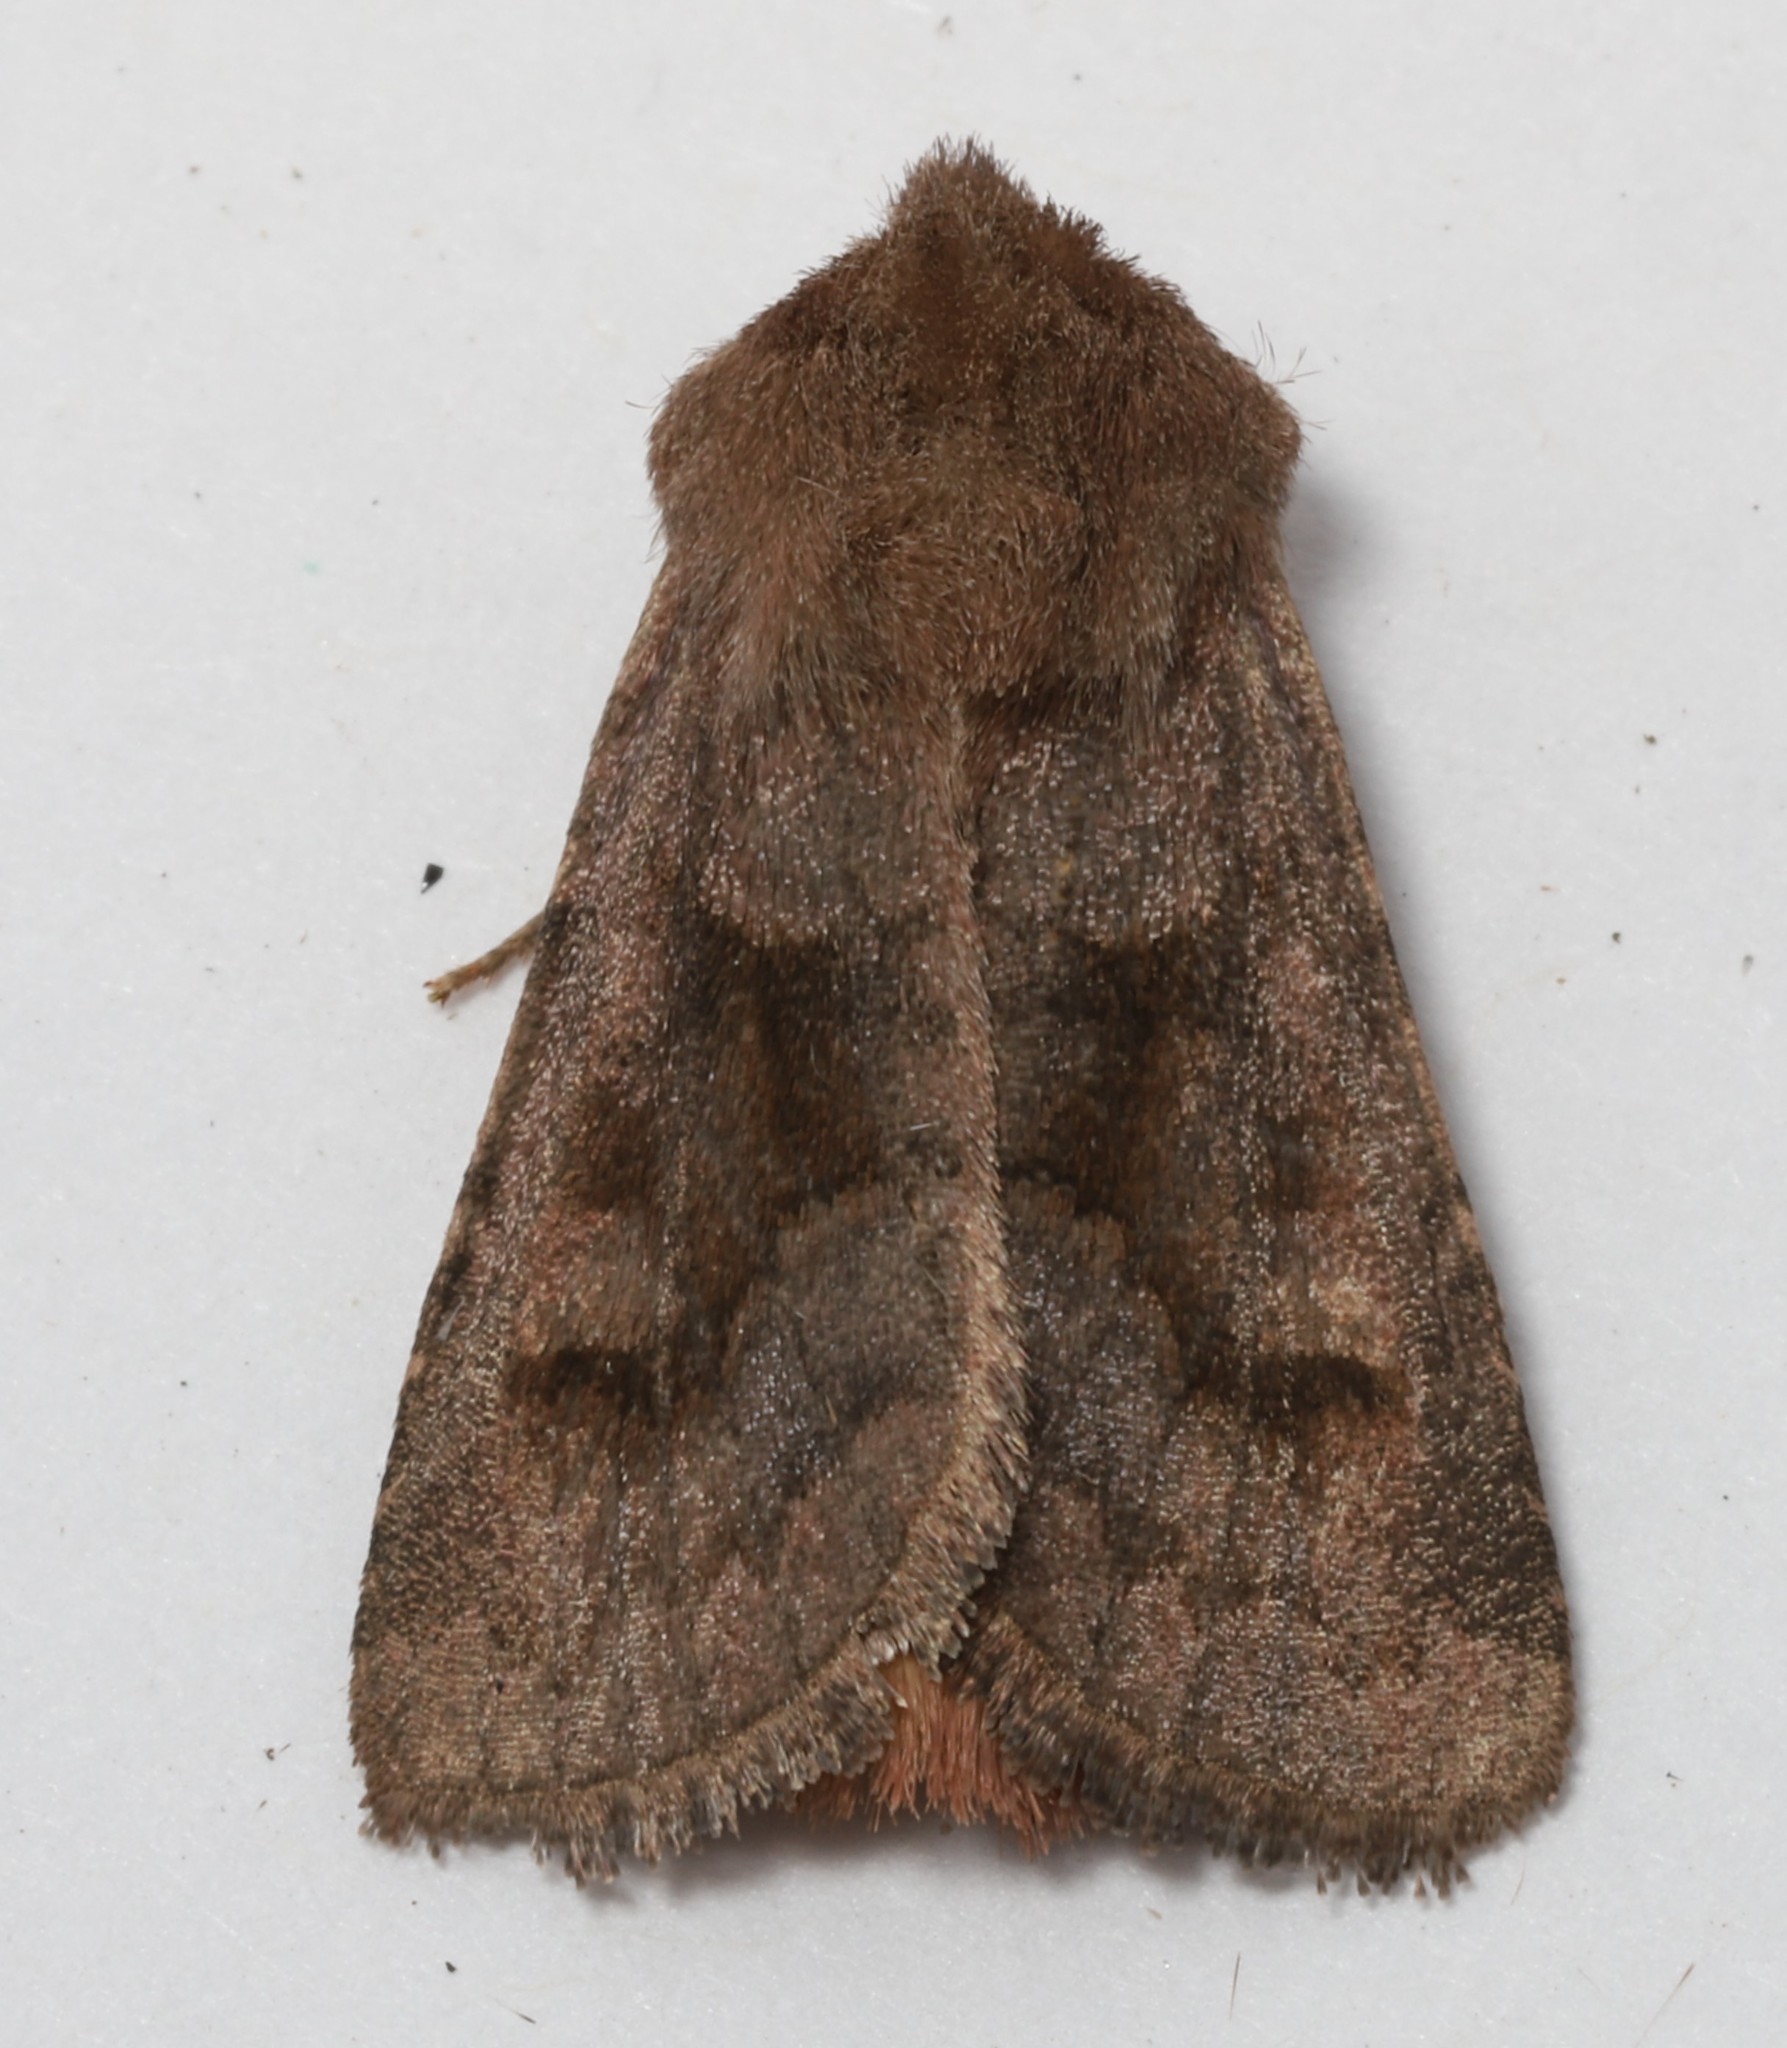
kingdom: Animalia
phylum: Arthropoda
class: Insecta
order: Lepidoptera
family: Noctuidae
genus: Nephelodes
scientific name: Nephelodes minians
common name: Bronzed cutworm
